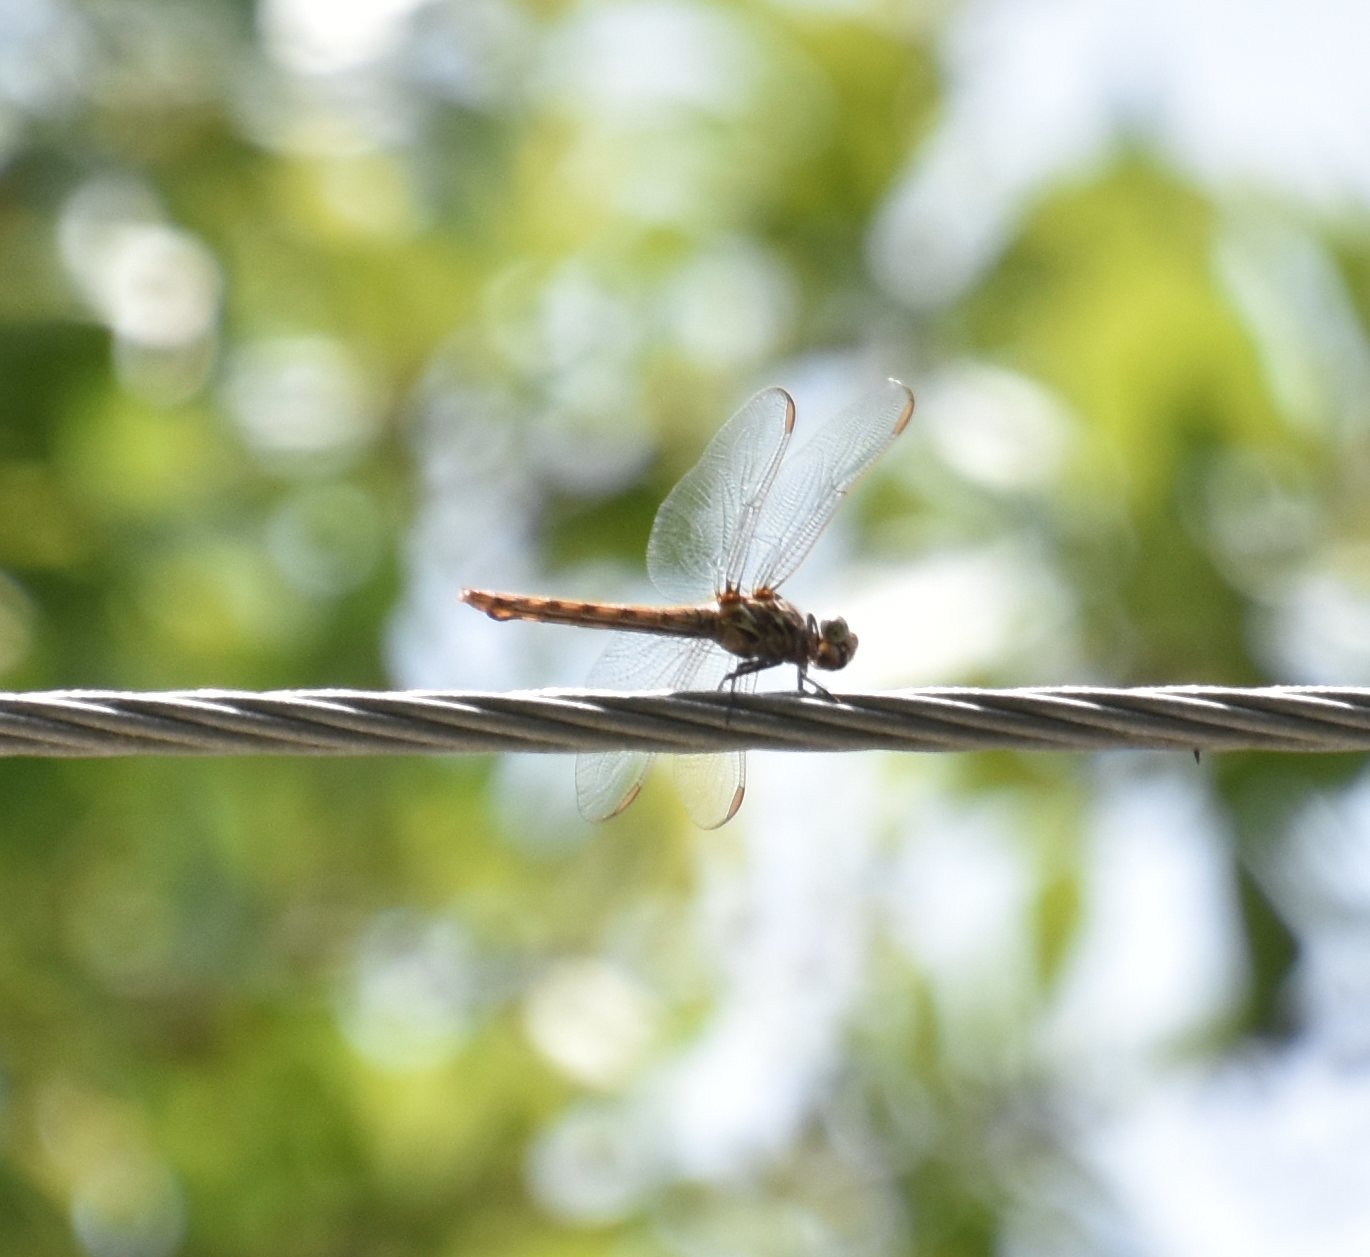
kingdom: Animalia
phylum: Arthropoda
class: Insecta
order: Odonata
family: Libellulidae
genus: Orthemis
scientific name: Orthemis ferruginea
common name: Roseate skimmer
